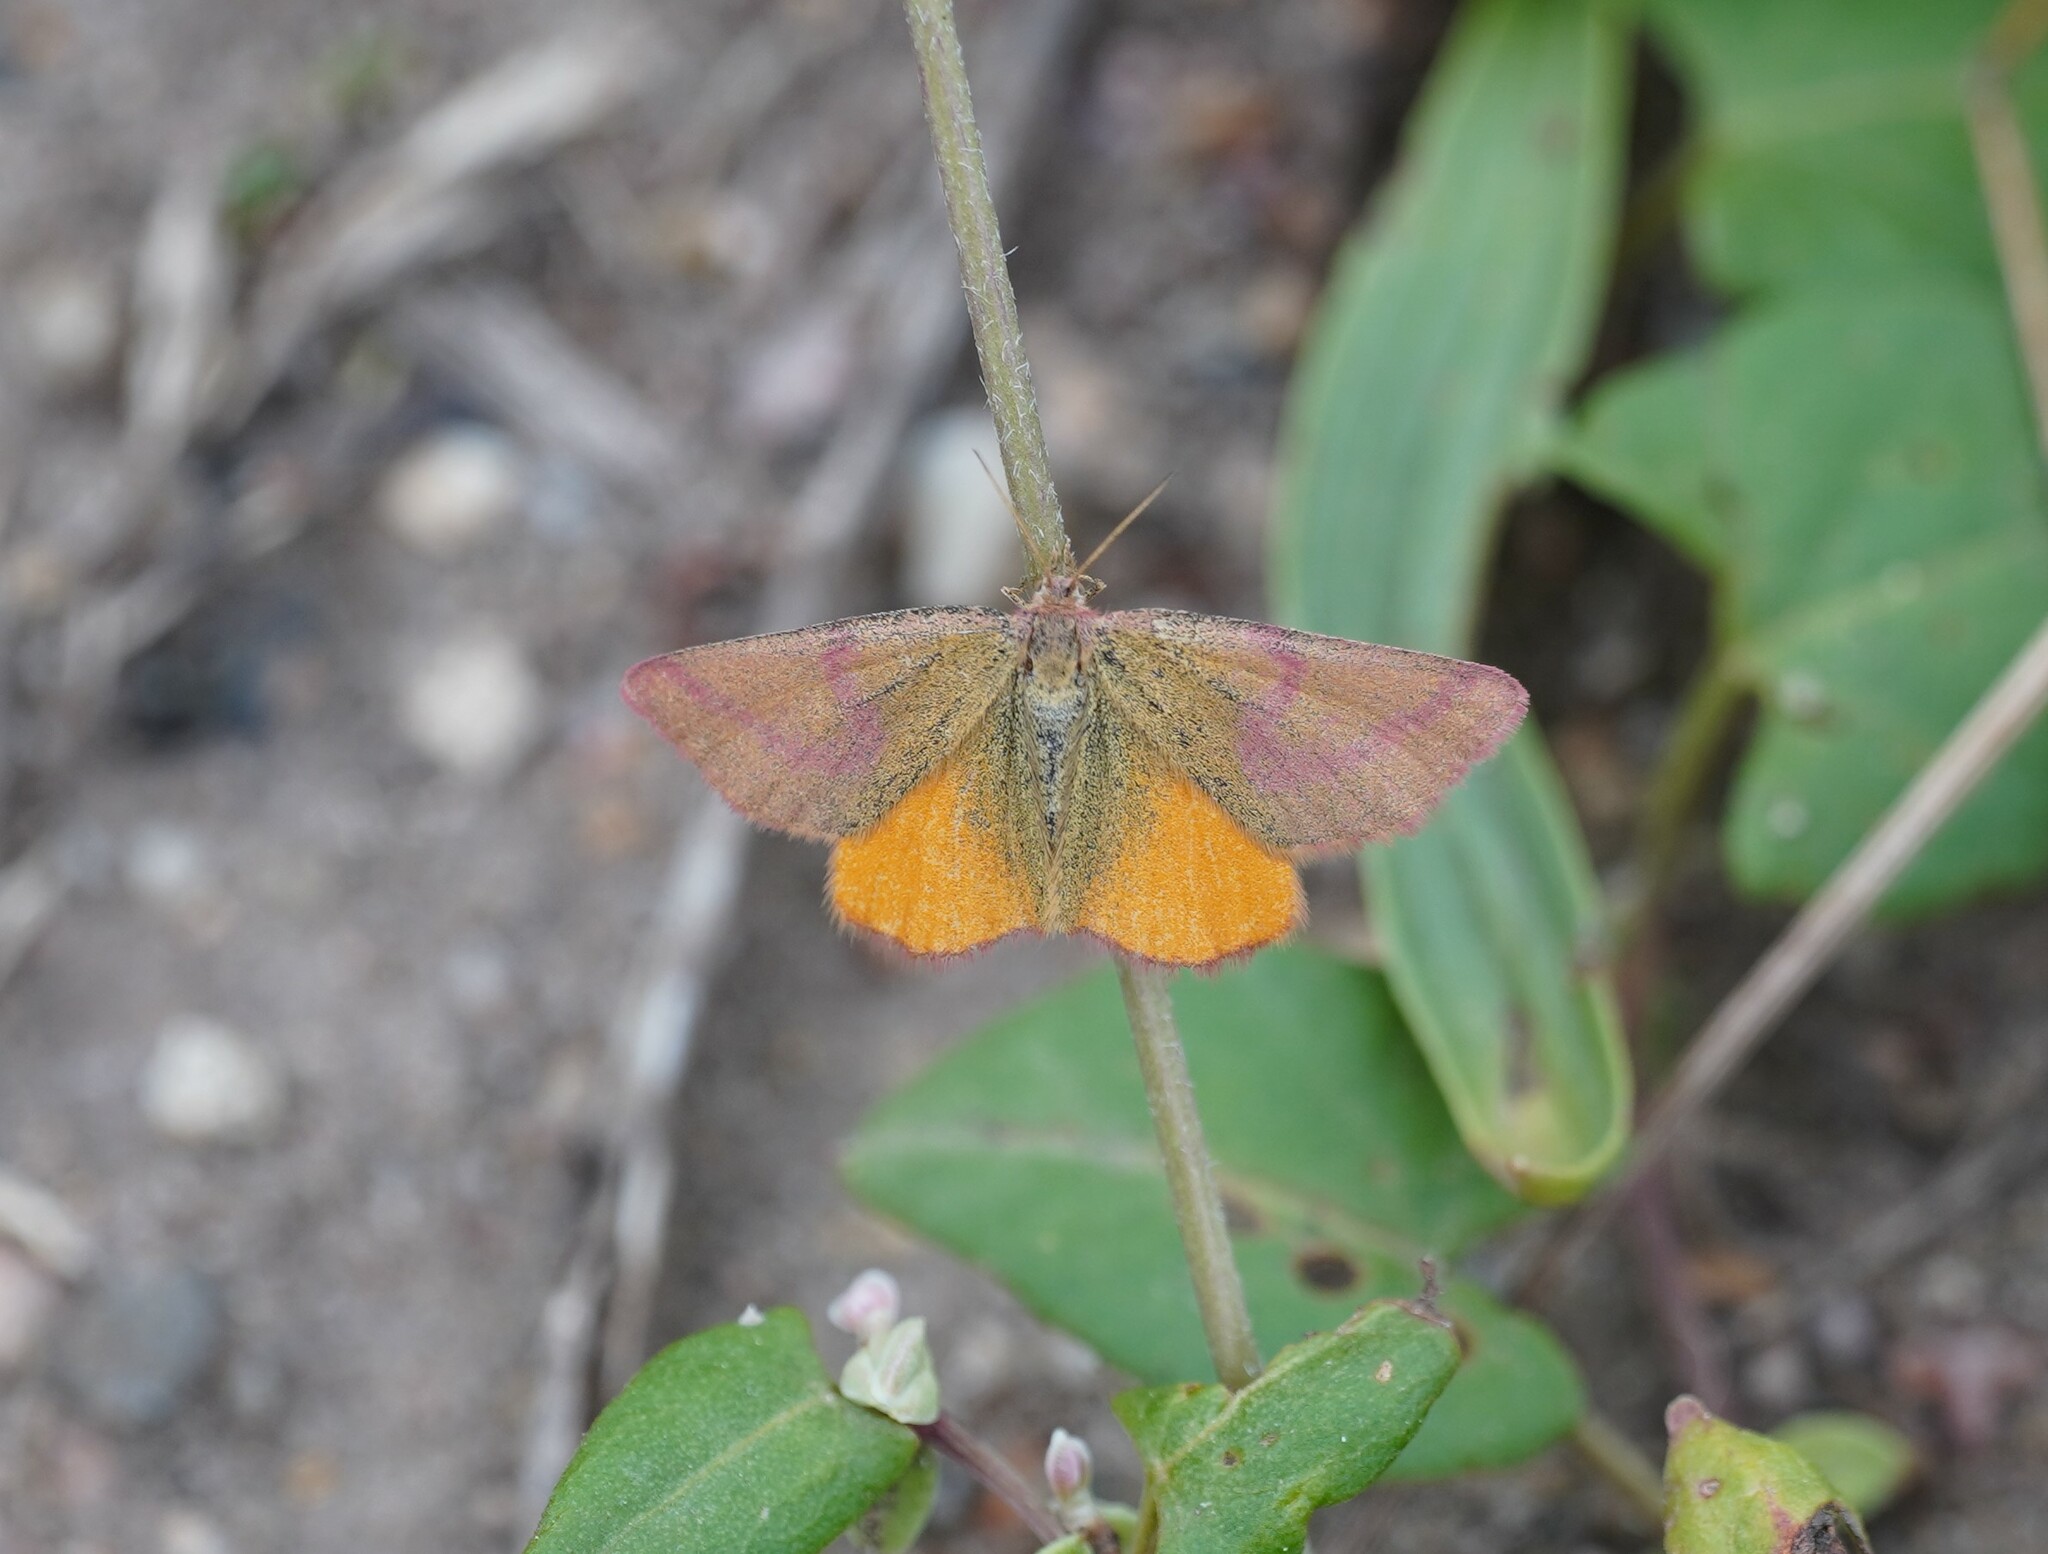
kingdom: Animalia
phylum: Arthropoda
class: Insecta
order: Lepidoptera
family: Geometridae
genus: Lythria
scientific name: Lythria purpuraria
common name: Purple-barred yellow
